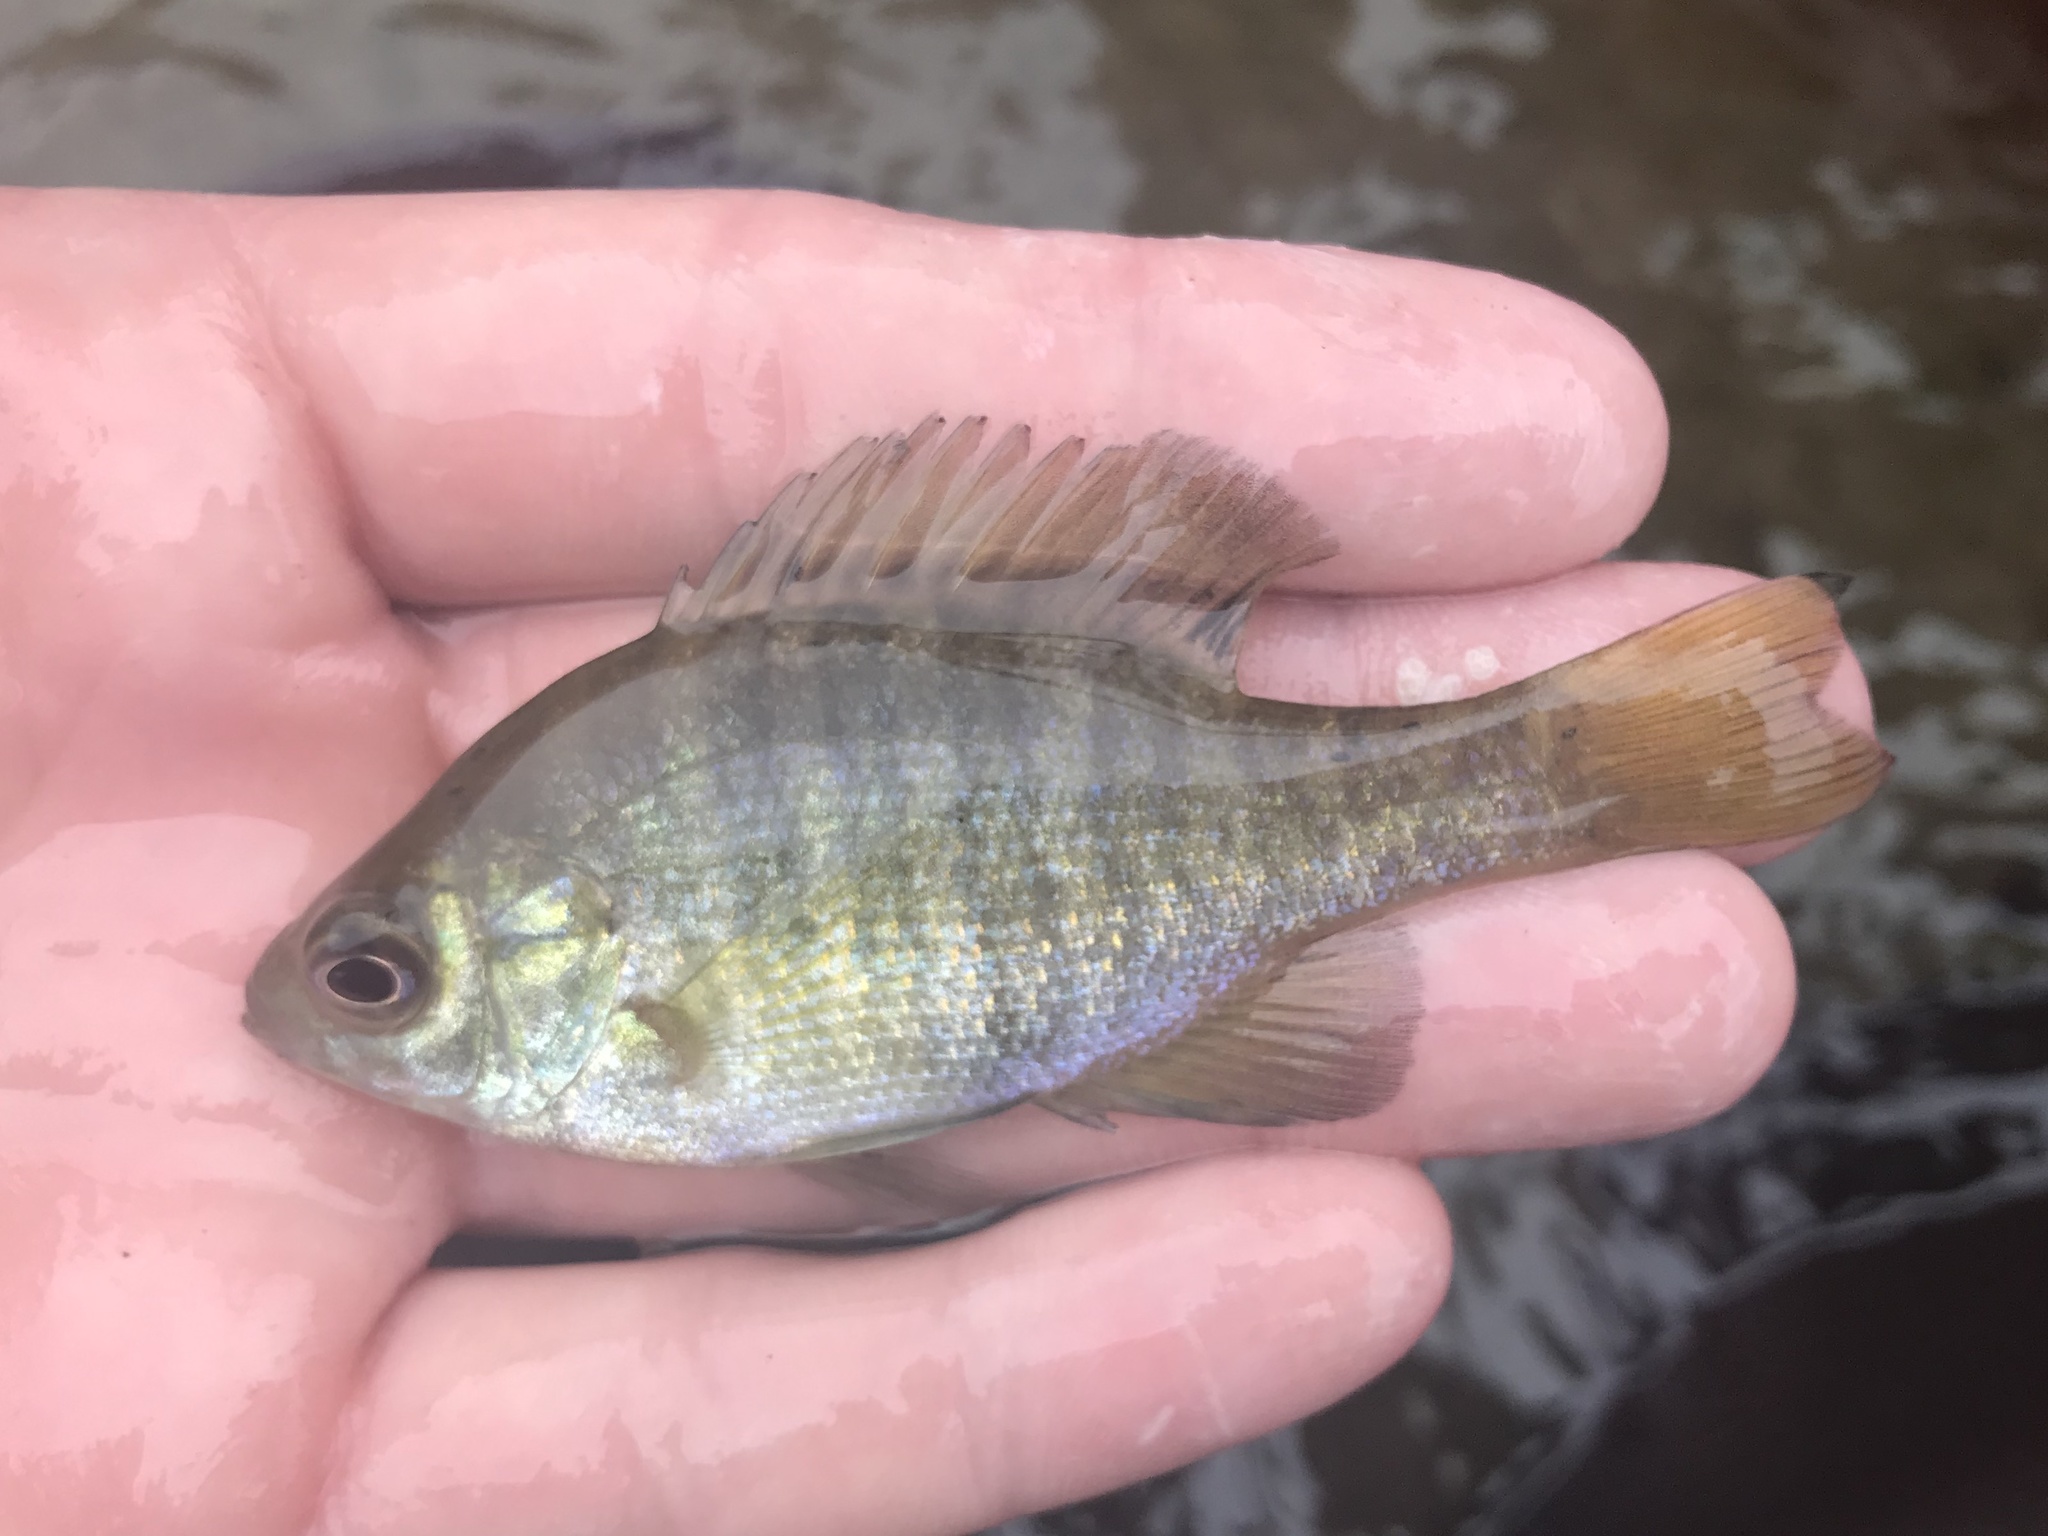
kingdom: Animalia
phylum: Chordata
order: Perciformes
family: Centrarchidae
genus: Lepomis
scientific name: Lepomis macrochirus
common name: Bluegill
